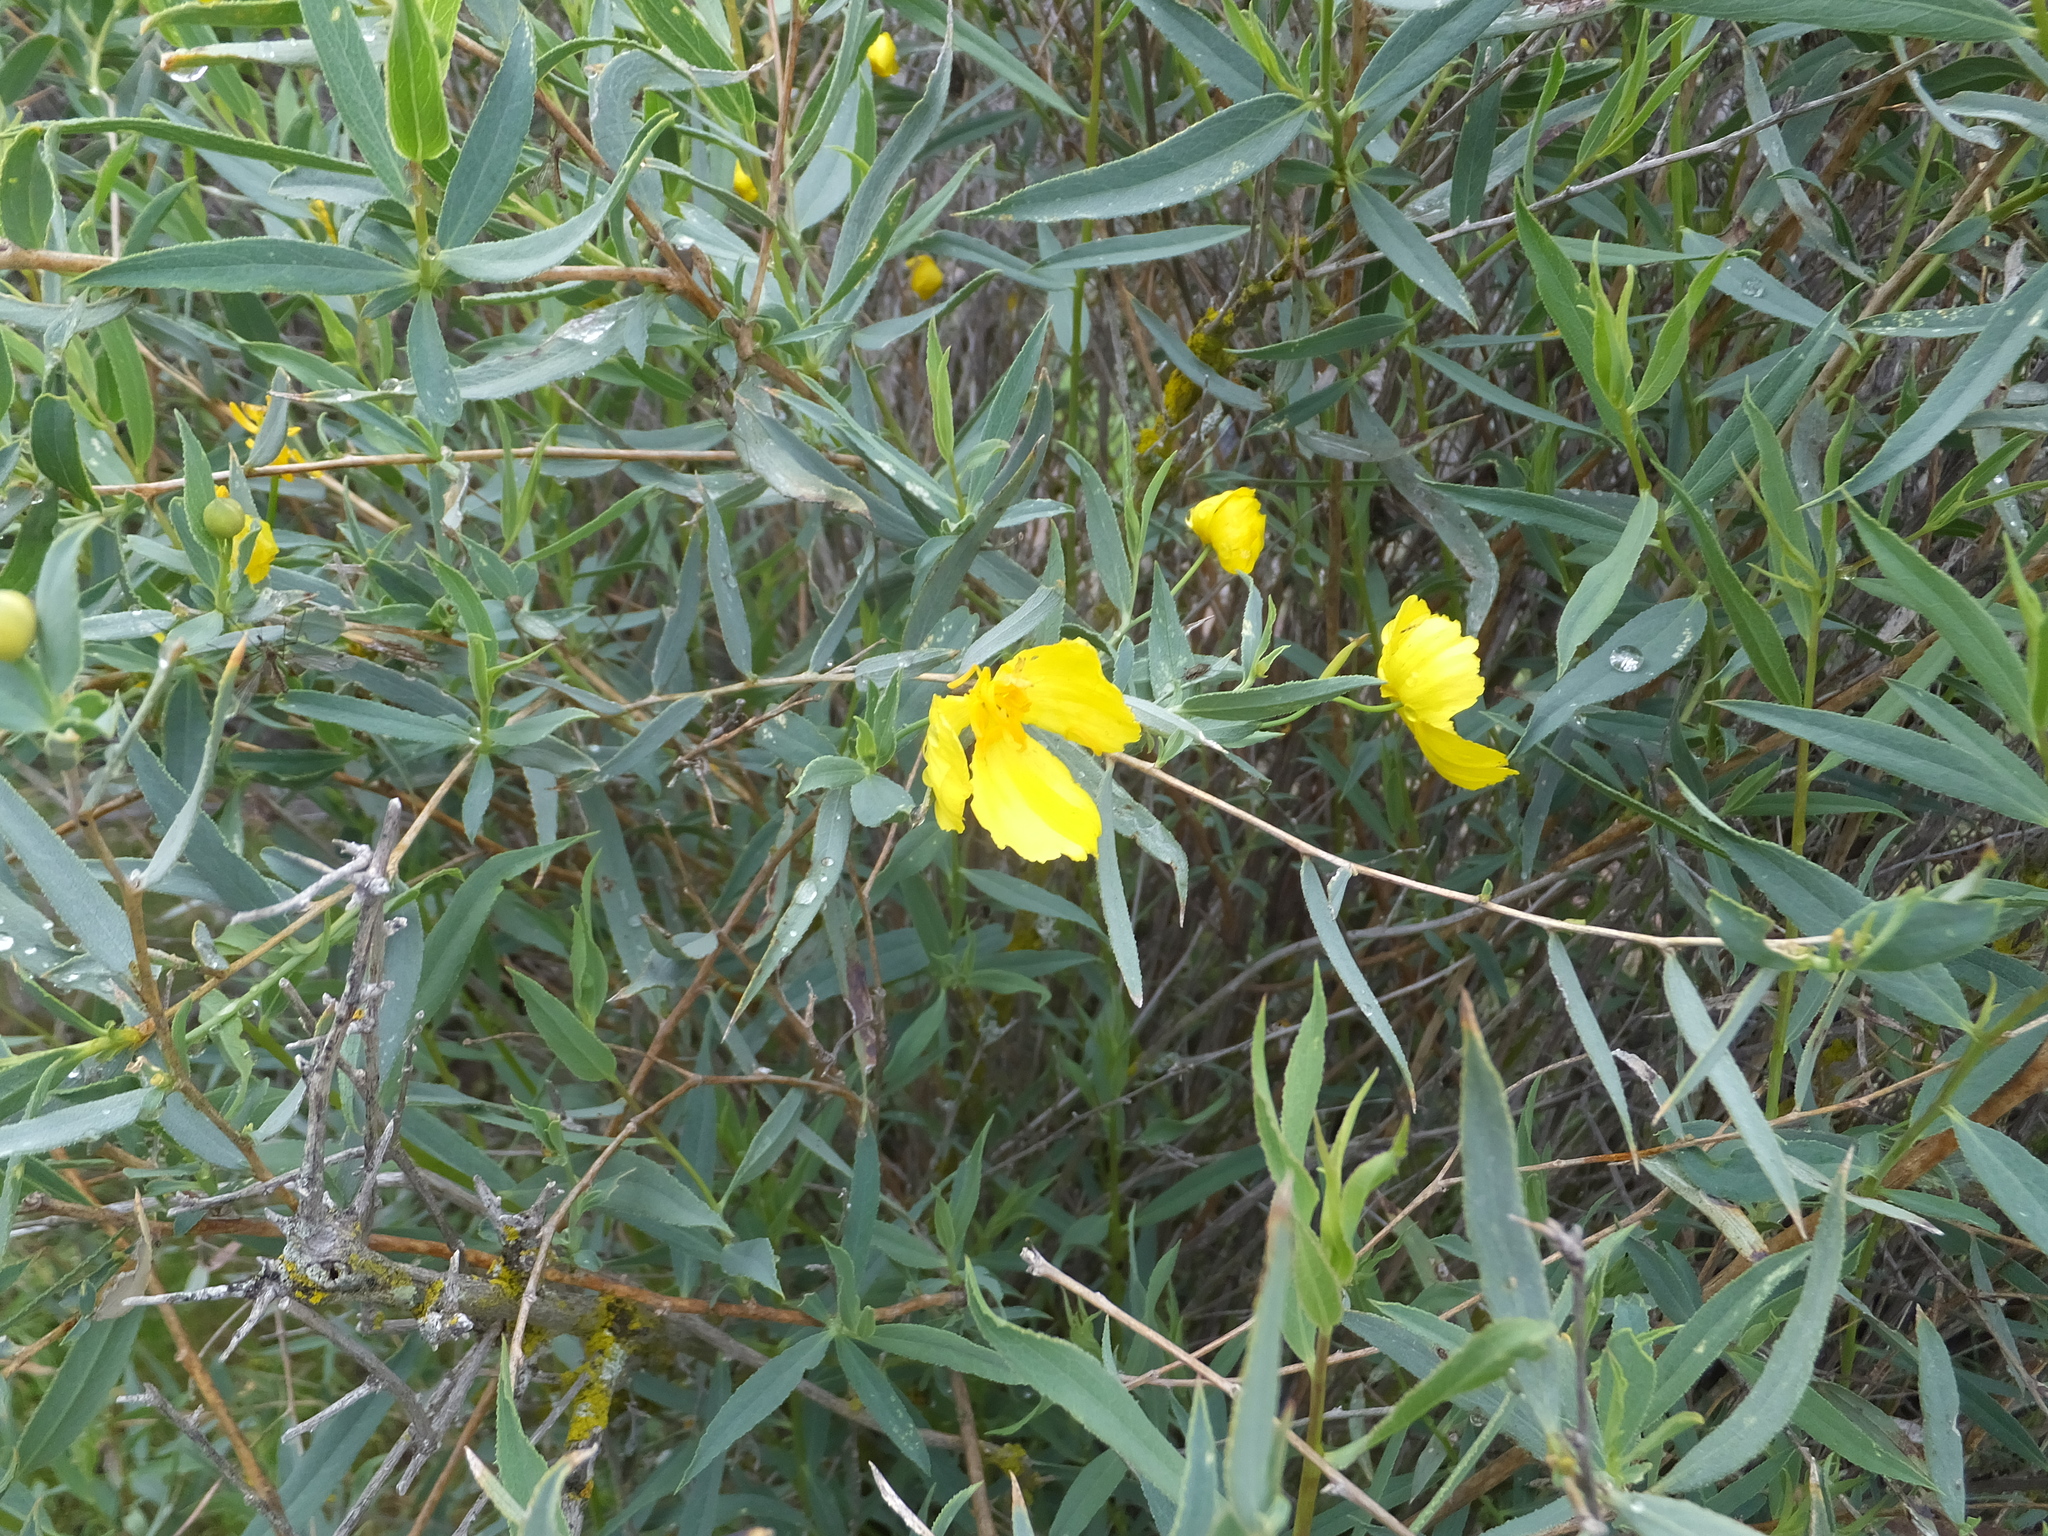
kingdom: Plantae
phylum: Tracheophyta
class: Magnoliopsida
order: Ranunculales
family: Papaveraceae
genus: Dendromecon
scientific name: Dendromecon rigida
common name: Tree poppy
